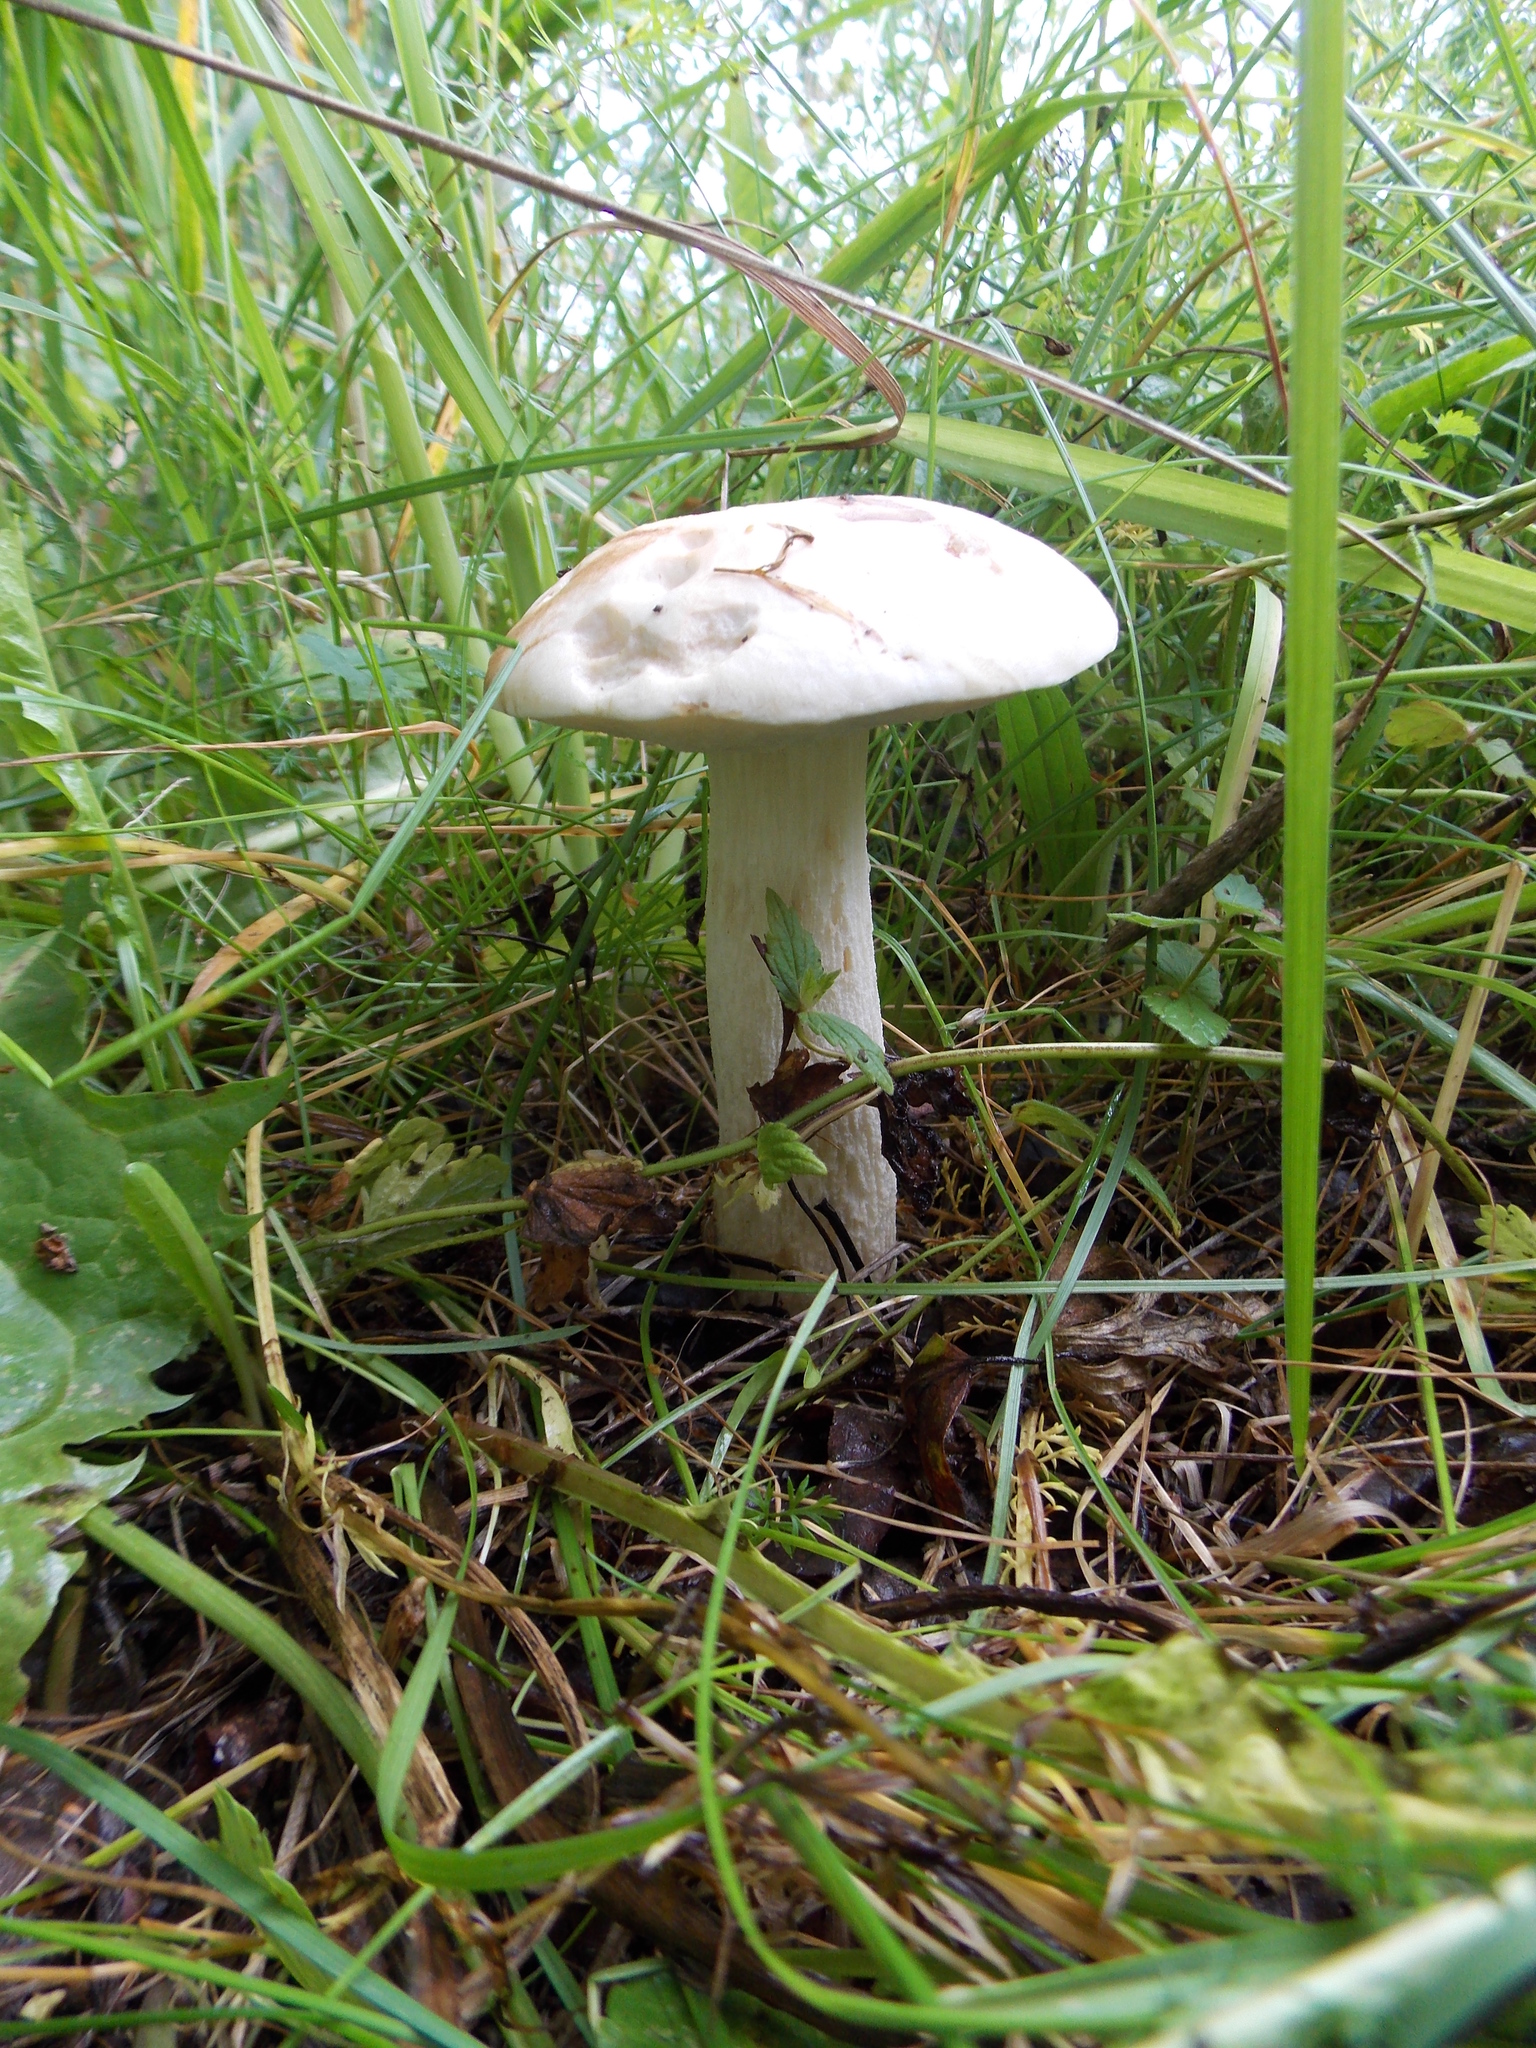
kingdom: Fungi
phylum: Basidiomycota
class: Agaricomycetes
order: Boletales
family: Boletaceae
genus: Leccinum
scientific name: Leccinum scabrum
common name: Blushing bolete
